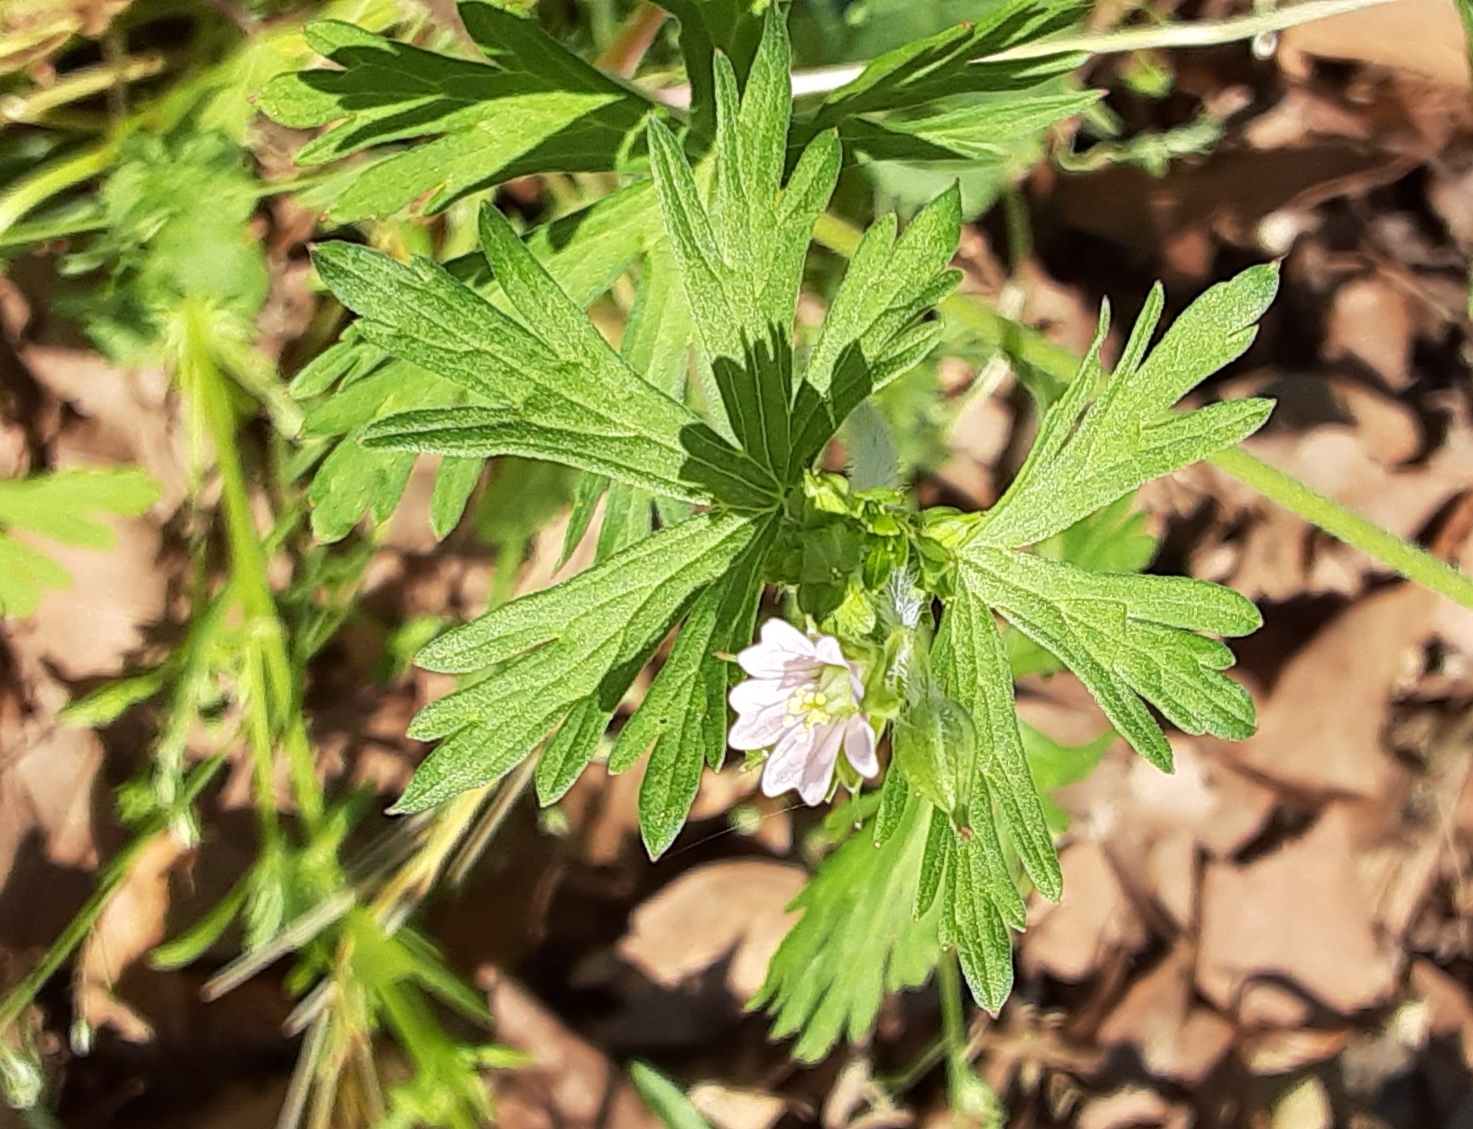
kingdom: Plantae
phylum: Tracheophyta
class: Magnoliopsida
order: Geraniales
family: Geraniaceae
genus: Geranium
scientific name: Geranium carolinianum
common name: Carolina crane's-bill
